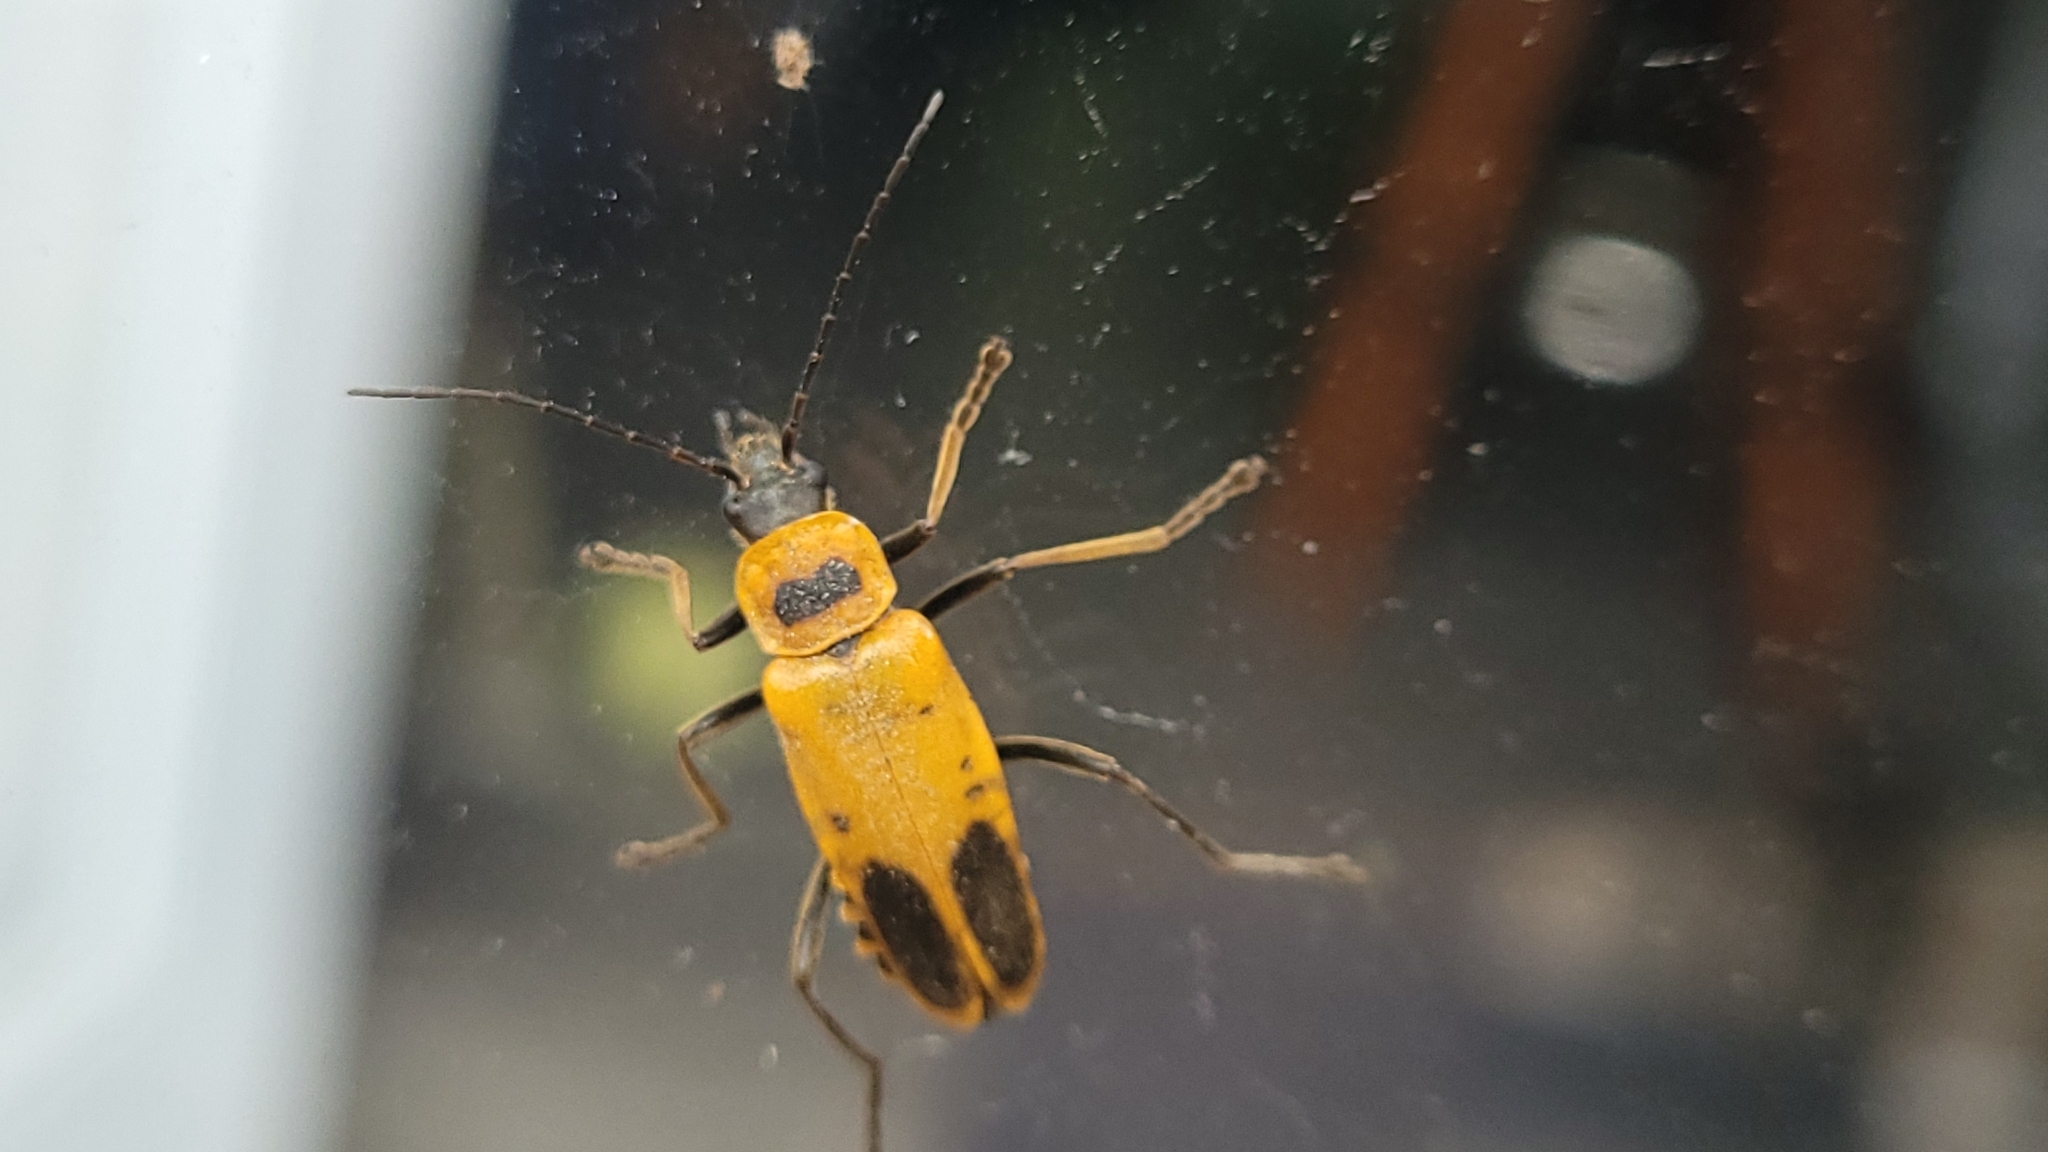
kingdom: Animalia
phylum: Arthropoda
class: Insecta
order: Coleoptera
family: Cantharidae
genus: Chauliognathus
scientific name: Chauliognathus pensylvanicus
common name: Goldenrod soldier beetle
